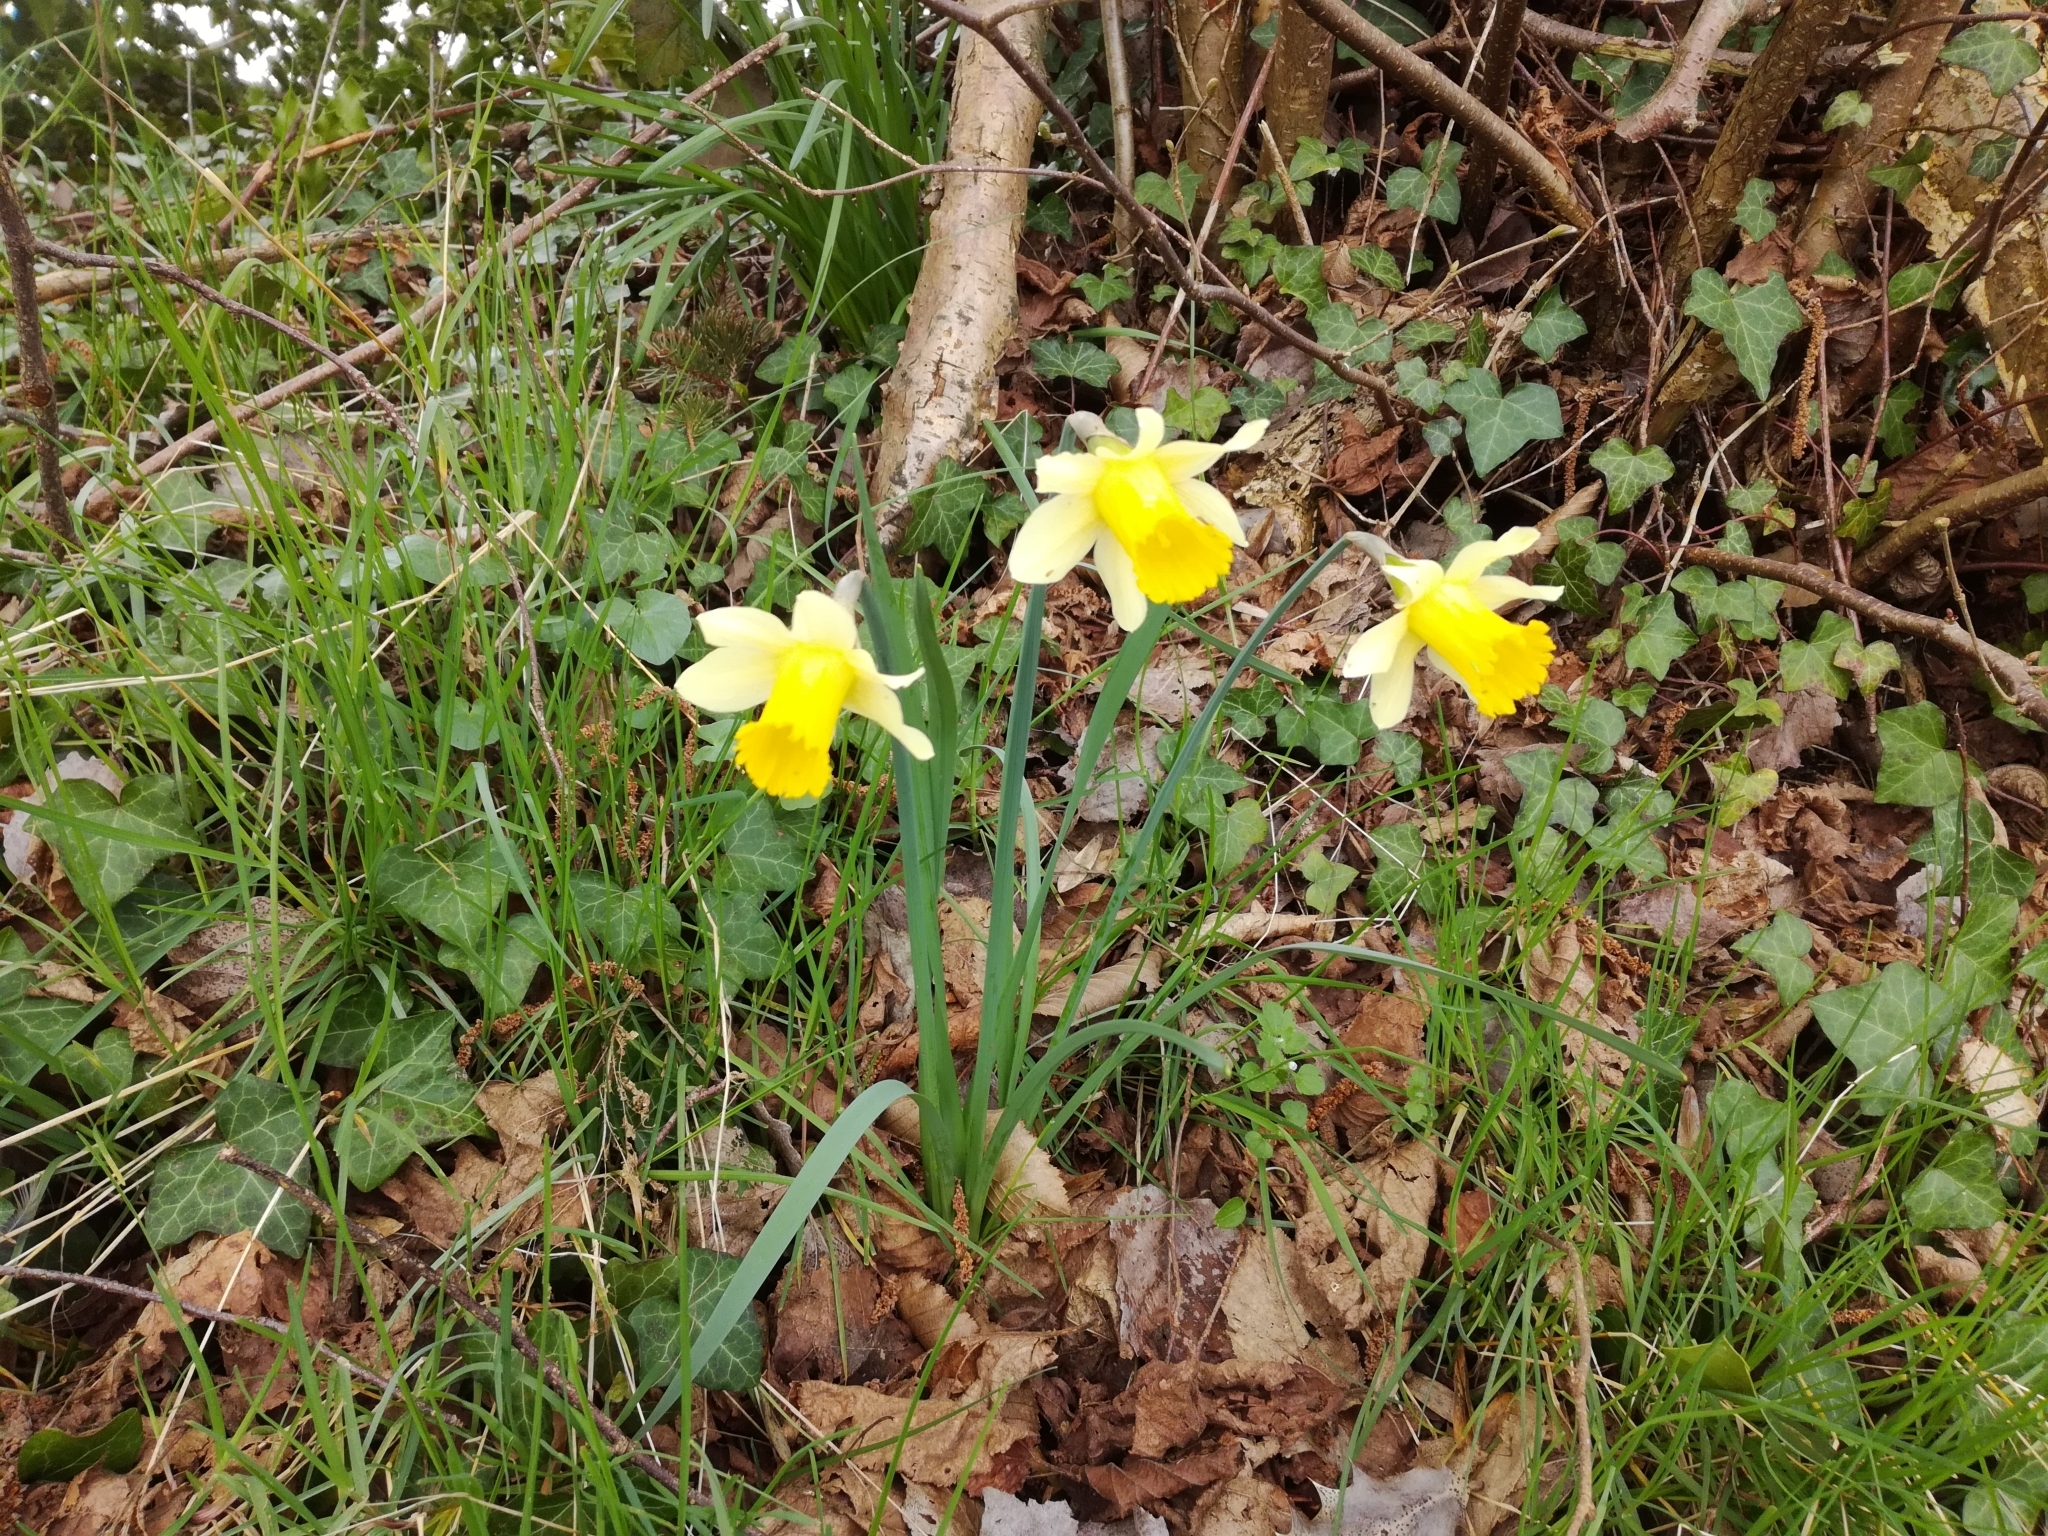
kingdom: Plantae
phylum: Tracheophyta
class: Liliopsida
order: Asparagales
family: Amaryllidaceae
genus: Narcissus
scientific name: Narcissus pseudonarcissus
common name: Daffodil
